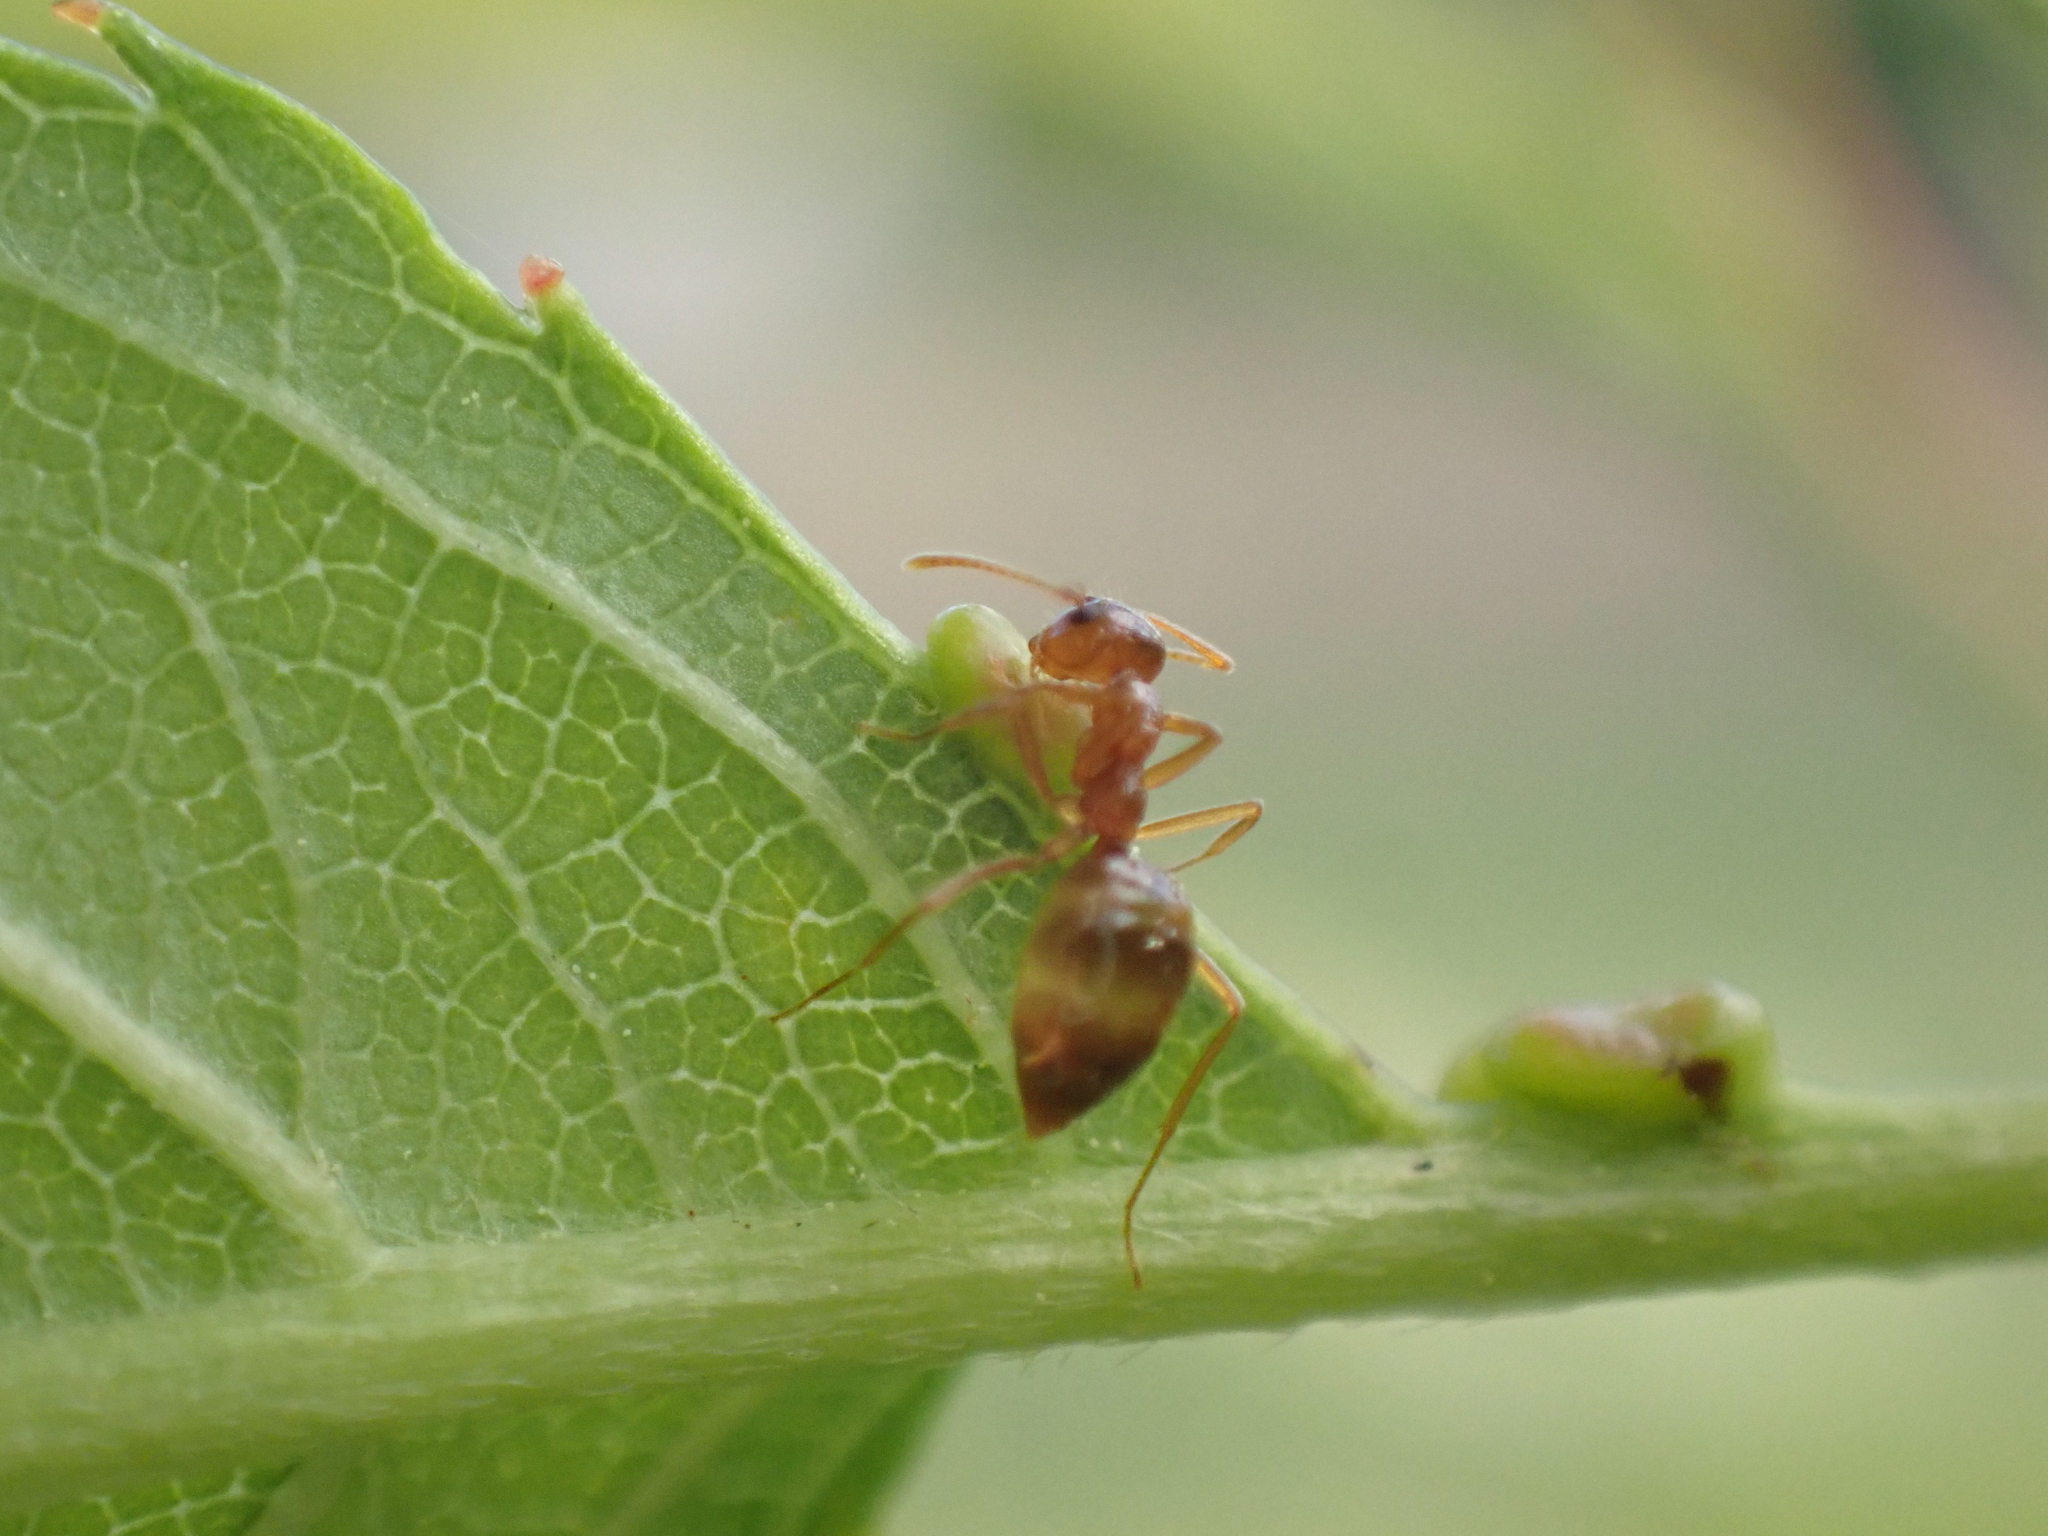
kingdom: Animalia
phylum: Arthropoda
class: Insecta
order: Hymenoptera
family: Formicidae
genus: Prenolepis
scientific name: Prenolepis imparis
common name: Small honey ant
